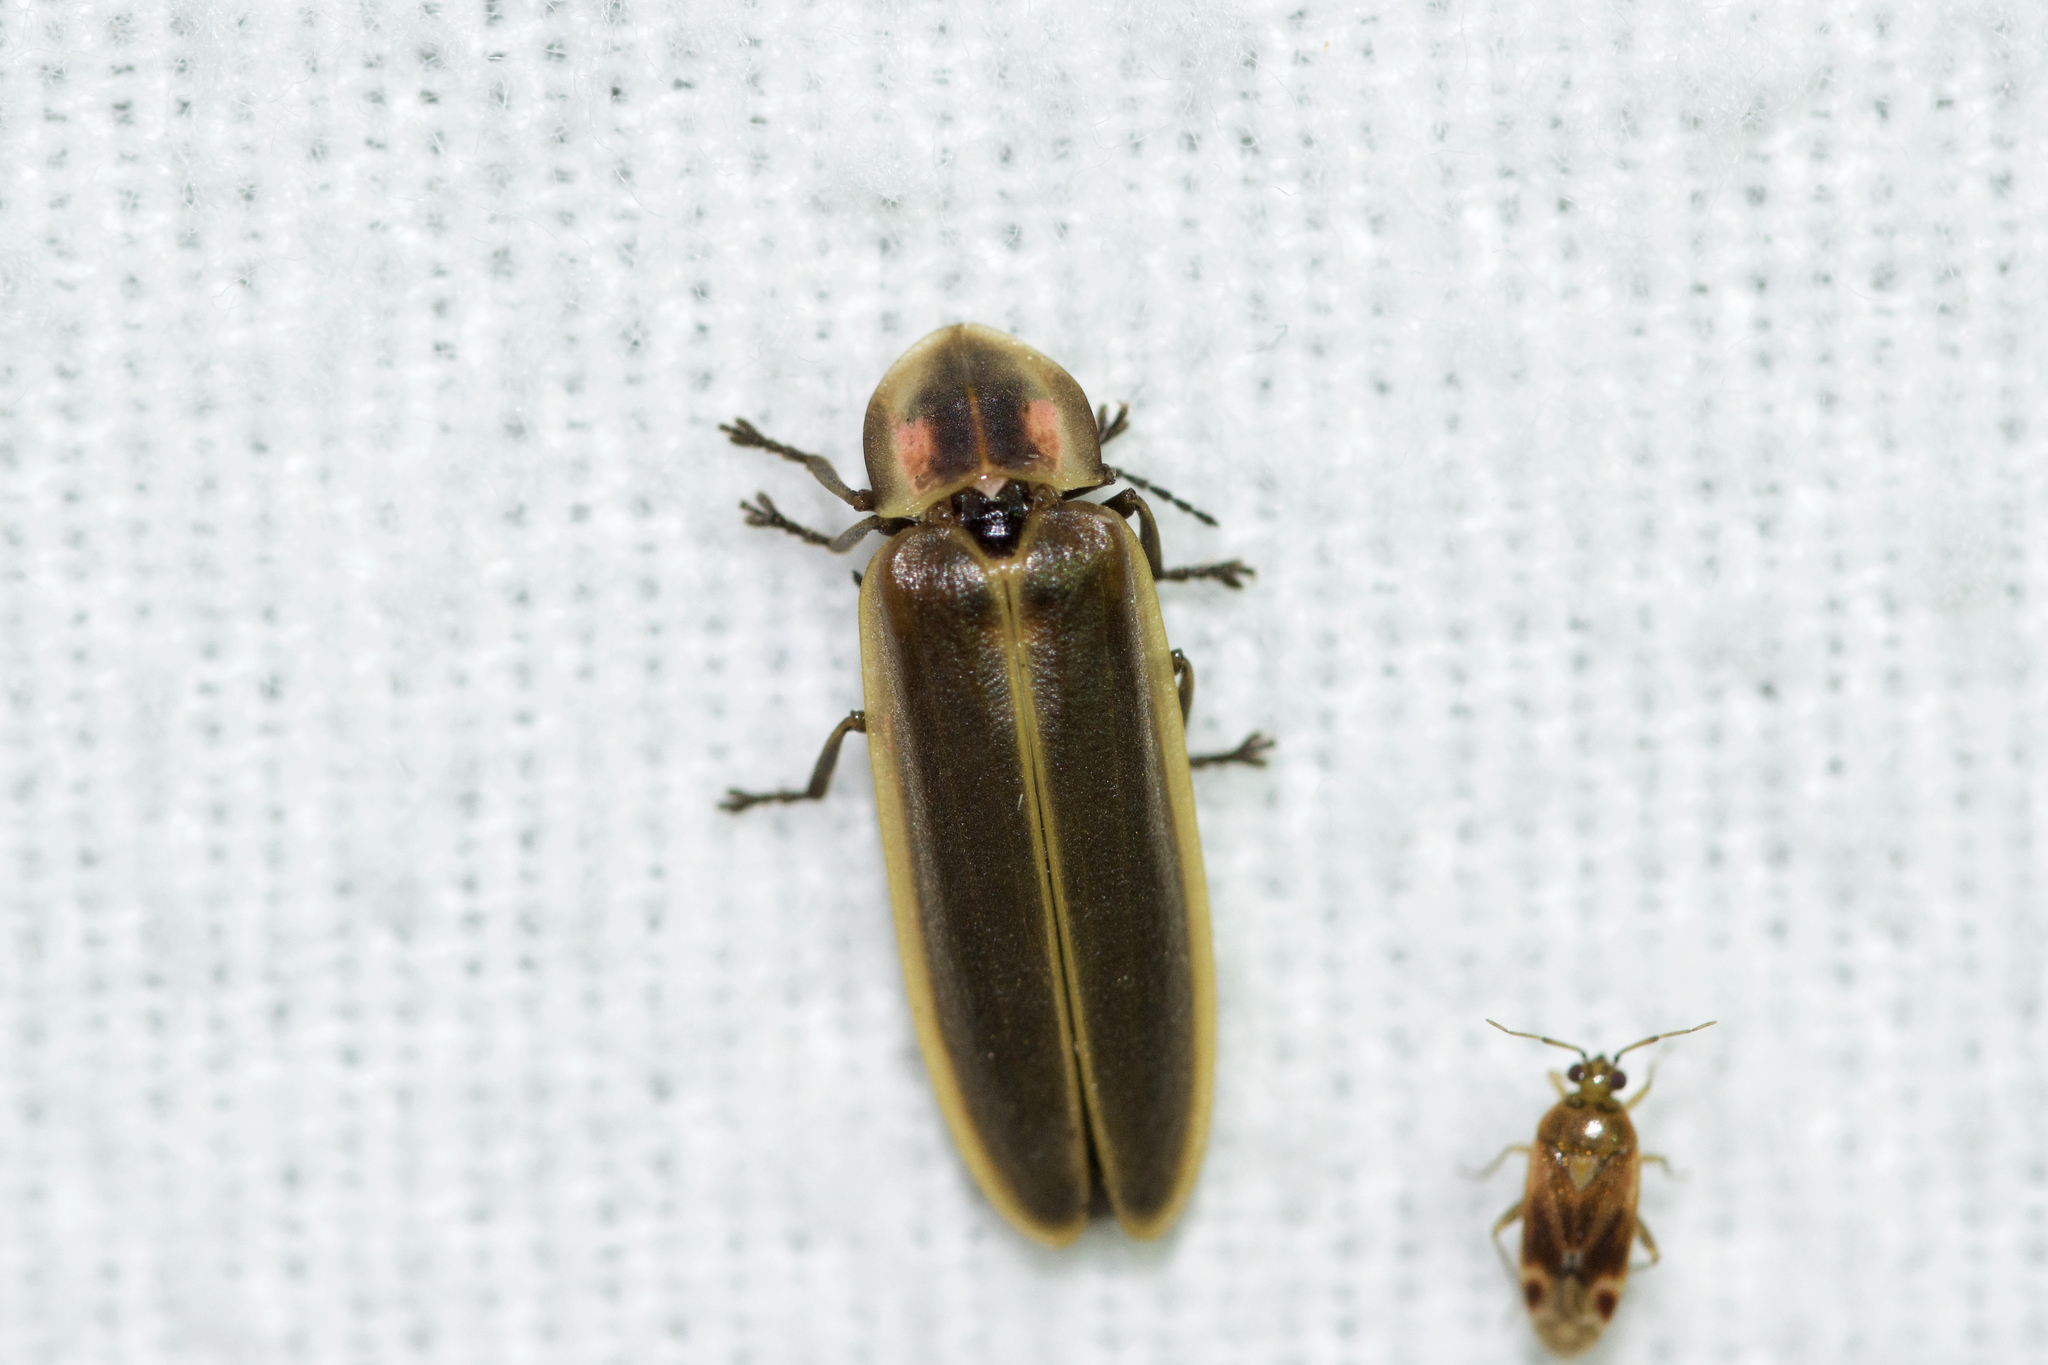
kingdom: Animalia
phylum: Arthropoda
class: Insecta
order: Coleoptera
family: Lampyridae
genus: Pyractomena
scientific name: Pyractomena borealis
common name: Northern firefly
